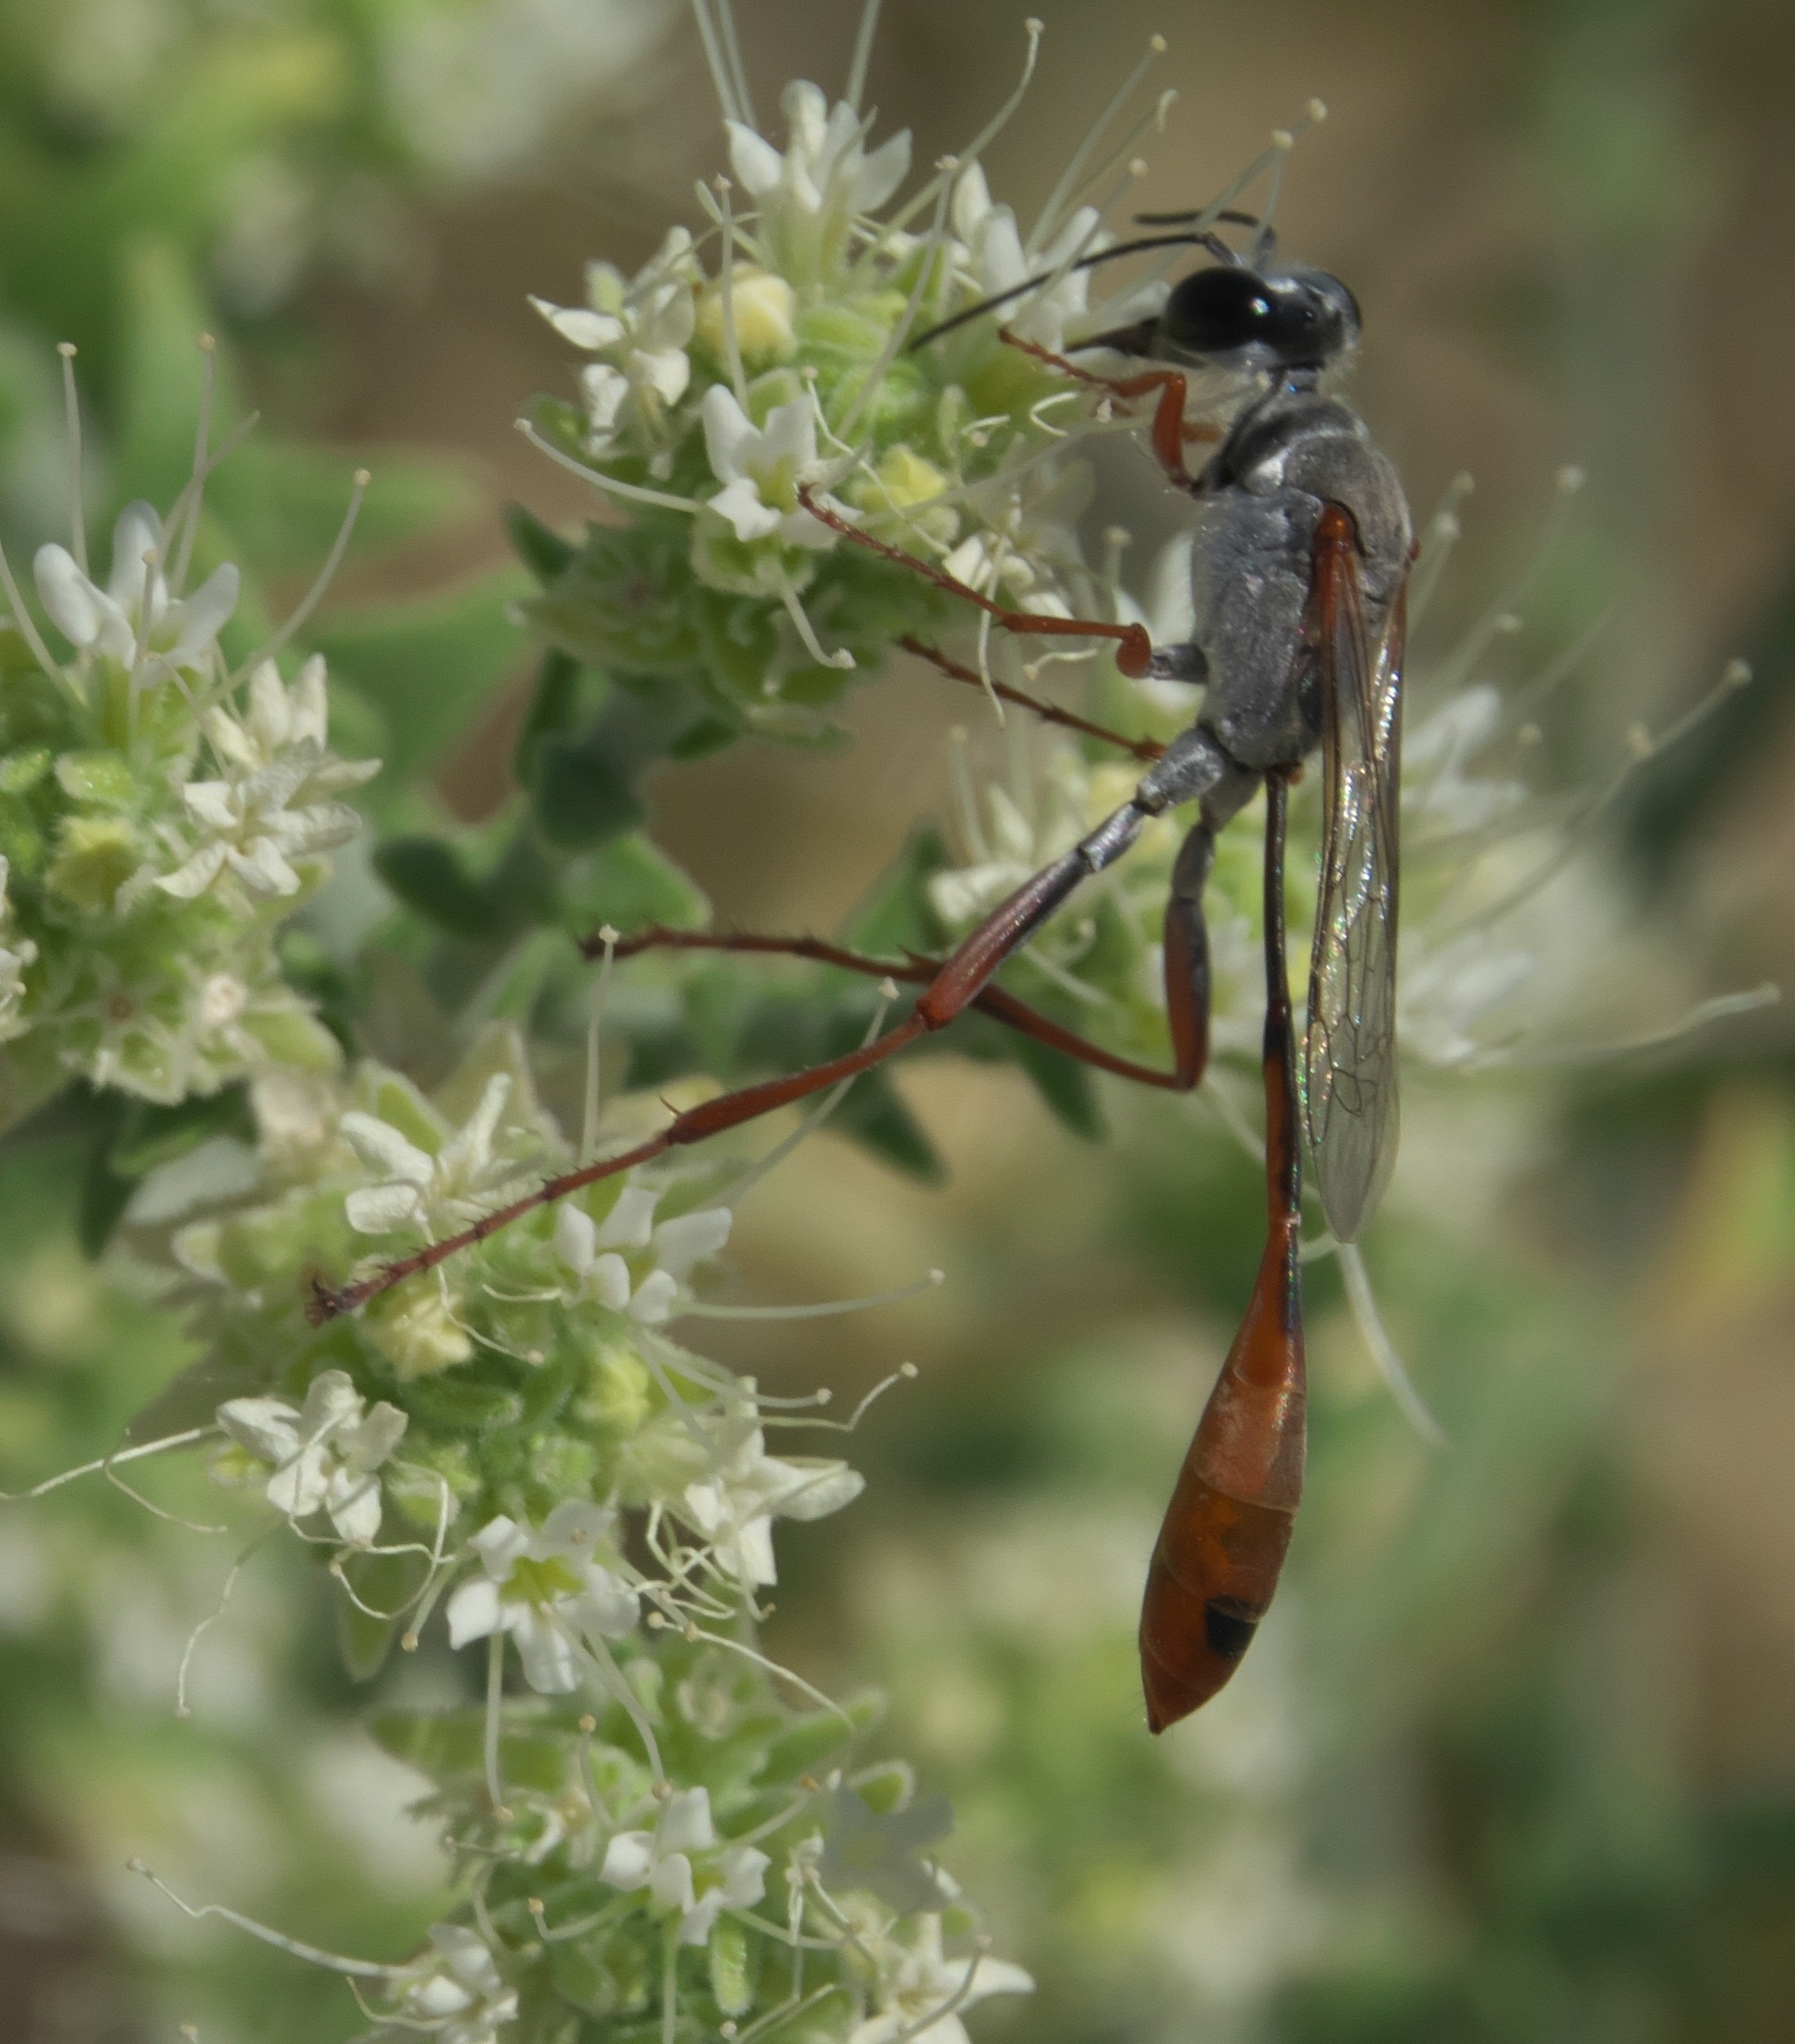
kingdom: Animalia
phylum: Arthropoda
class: Insecta
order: Hymenoptera
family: Sphecidae
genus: Ammophila
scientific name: Ammophila aberti
